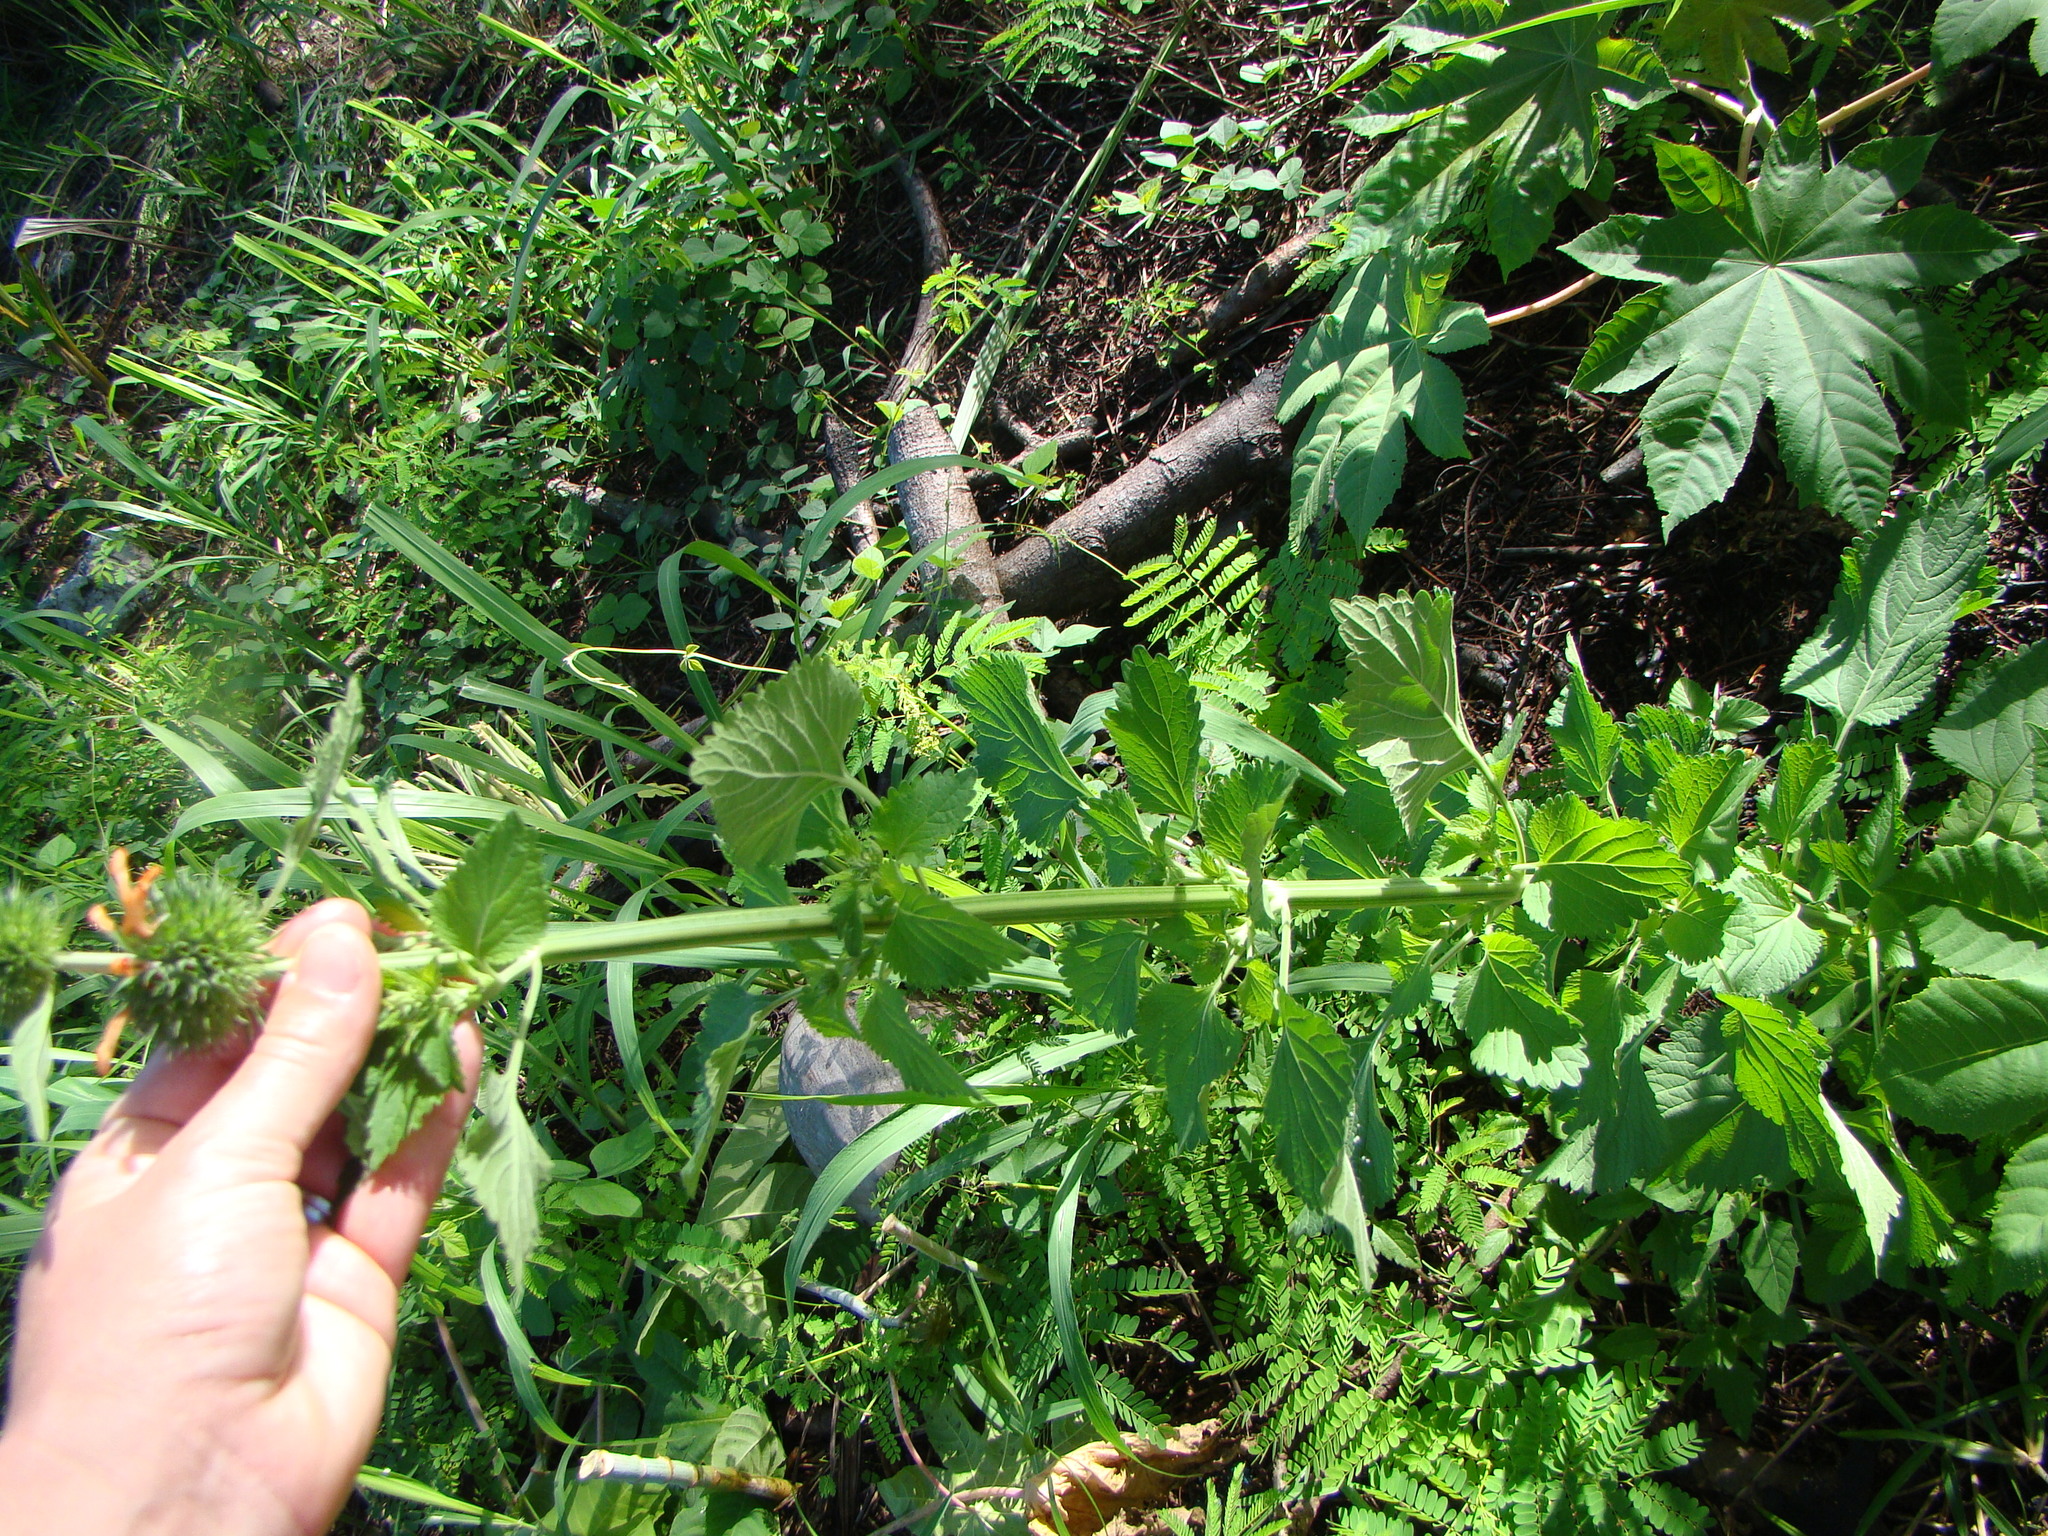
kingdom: Plantae
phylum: Tracheophyta
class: Magnoliopsida
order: Lamiales
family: Lamiaceae
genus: Leonotis
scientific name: Leonotis nepetifolia
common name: Christmas candlestick
